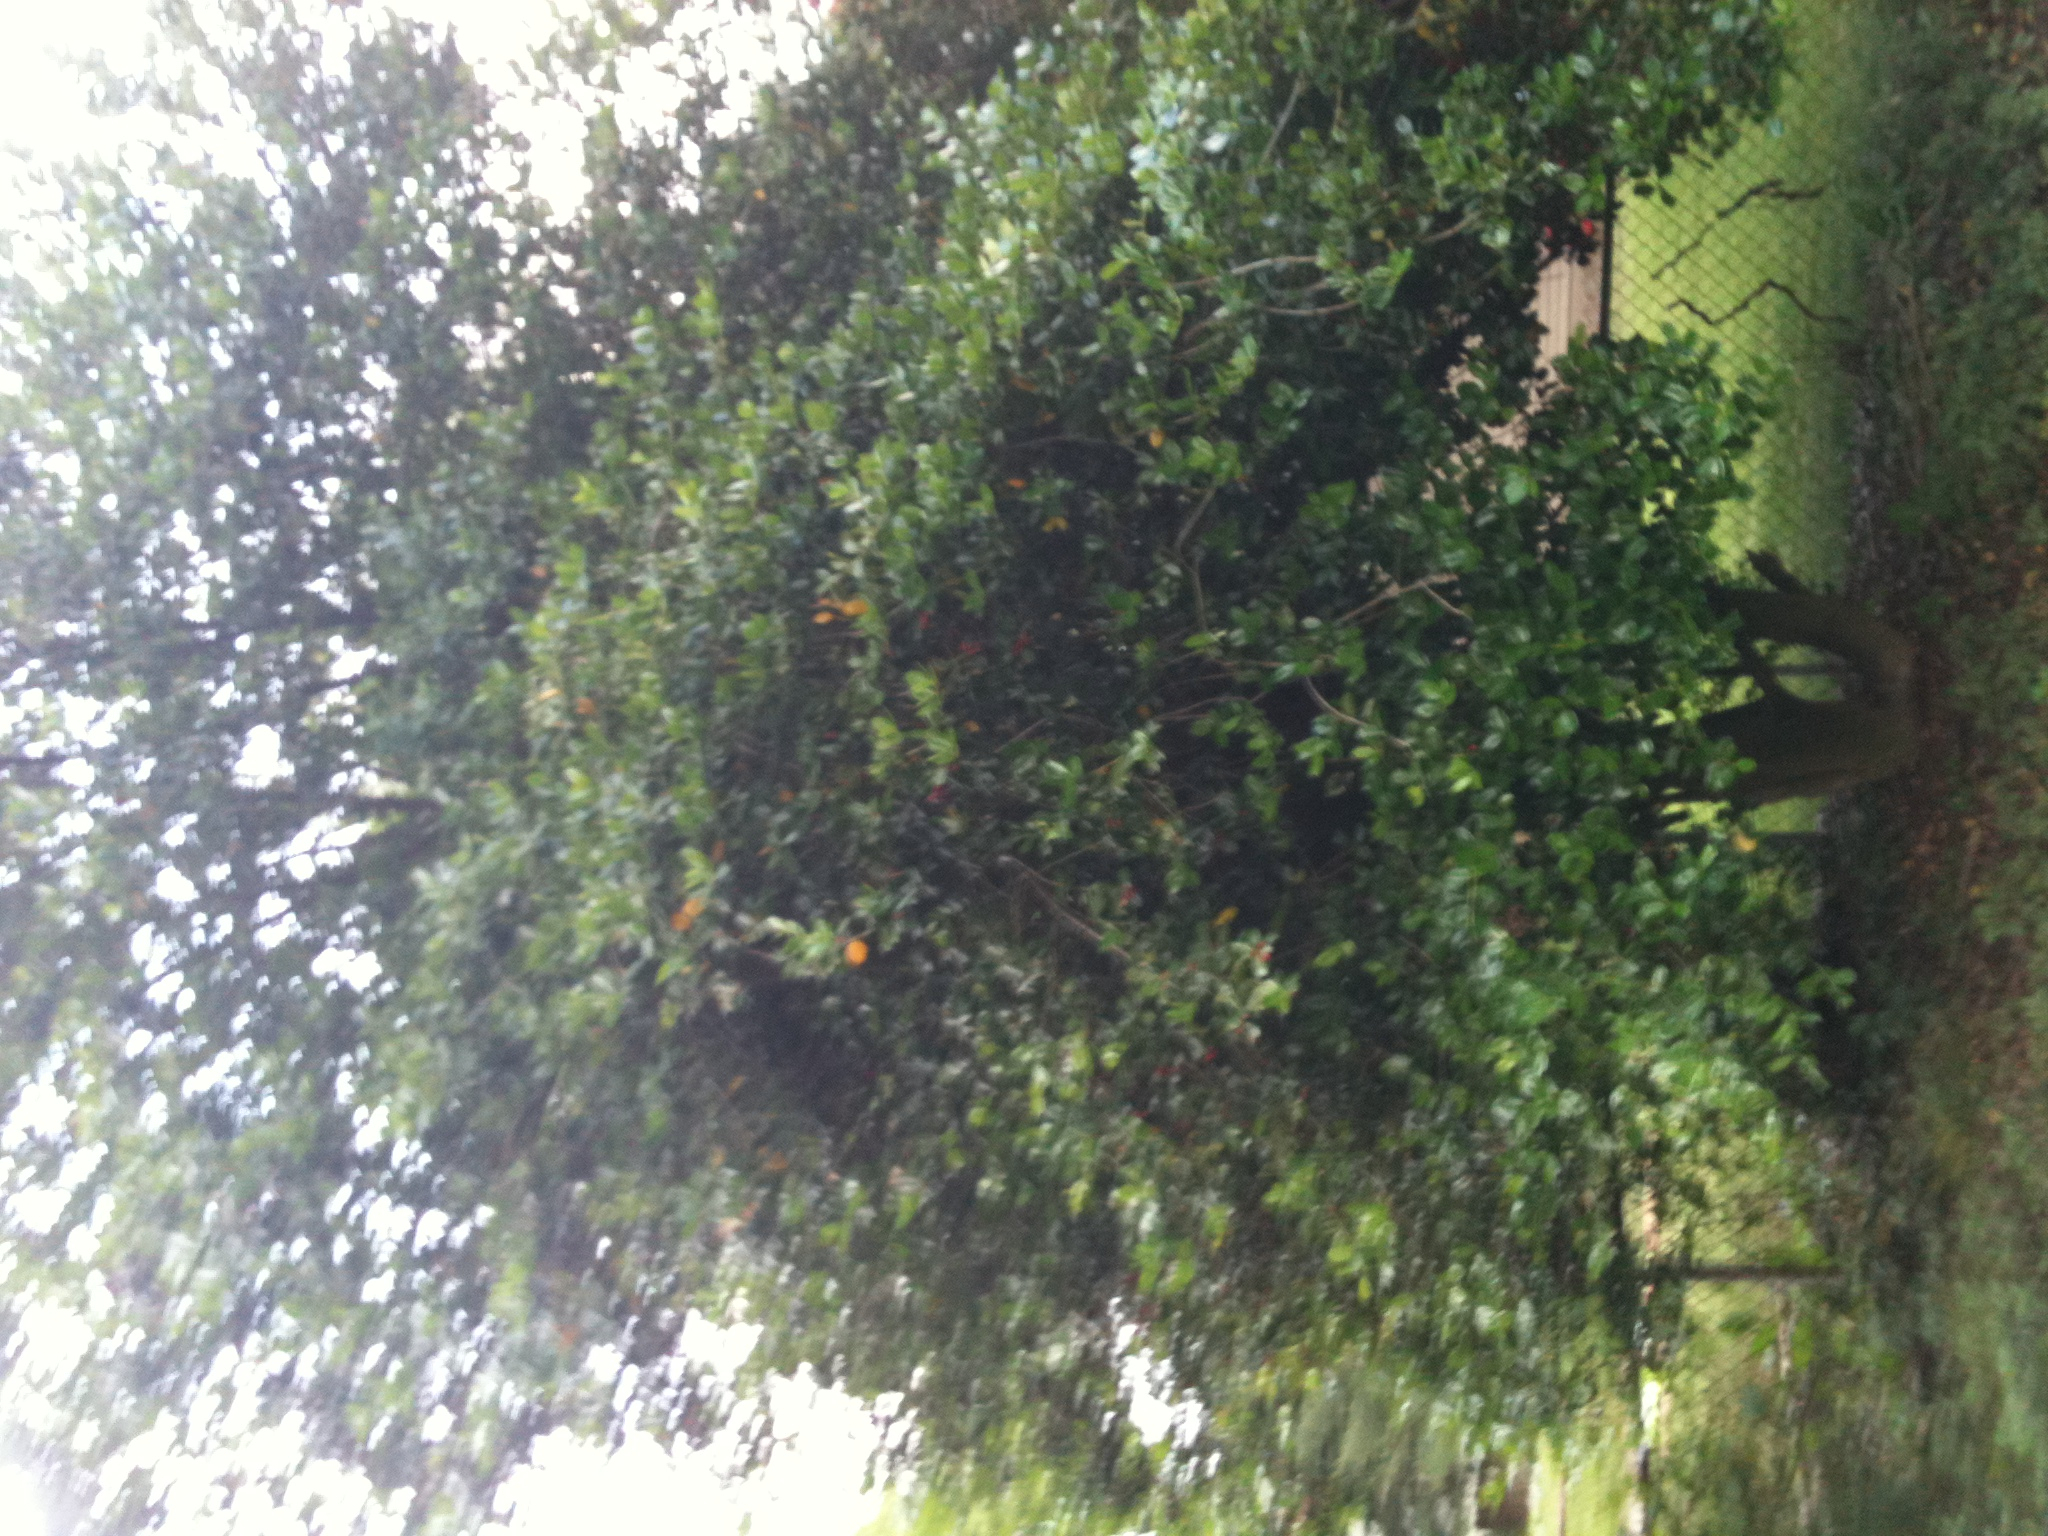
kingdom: Plantae
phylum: Tracheophyta
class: Magnoliopsida
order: Aquifoliales
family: Aquifoliaceae
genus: Ilex
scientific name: Ilex aquifolium
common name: English holly
